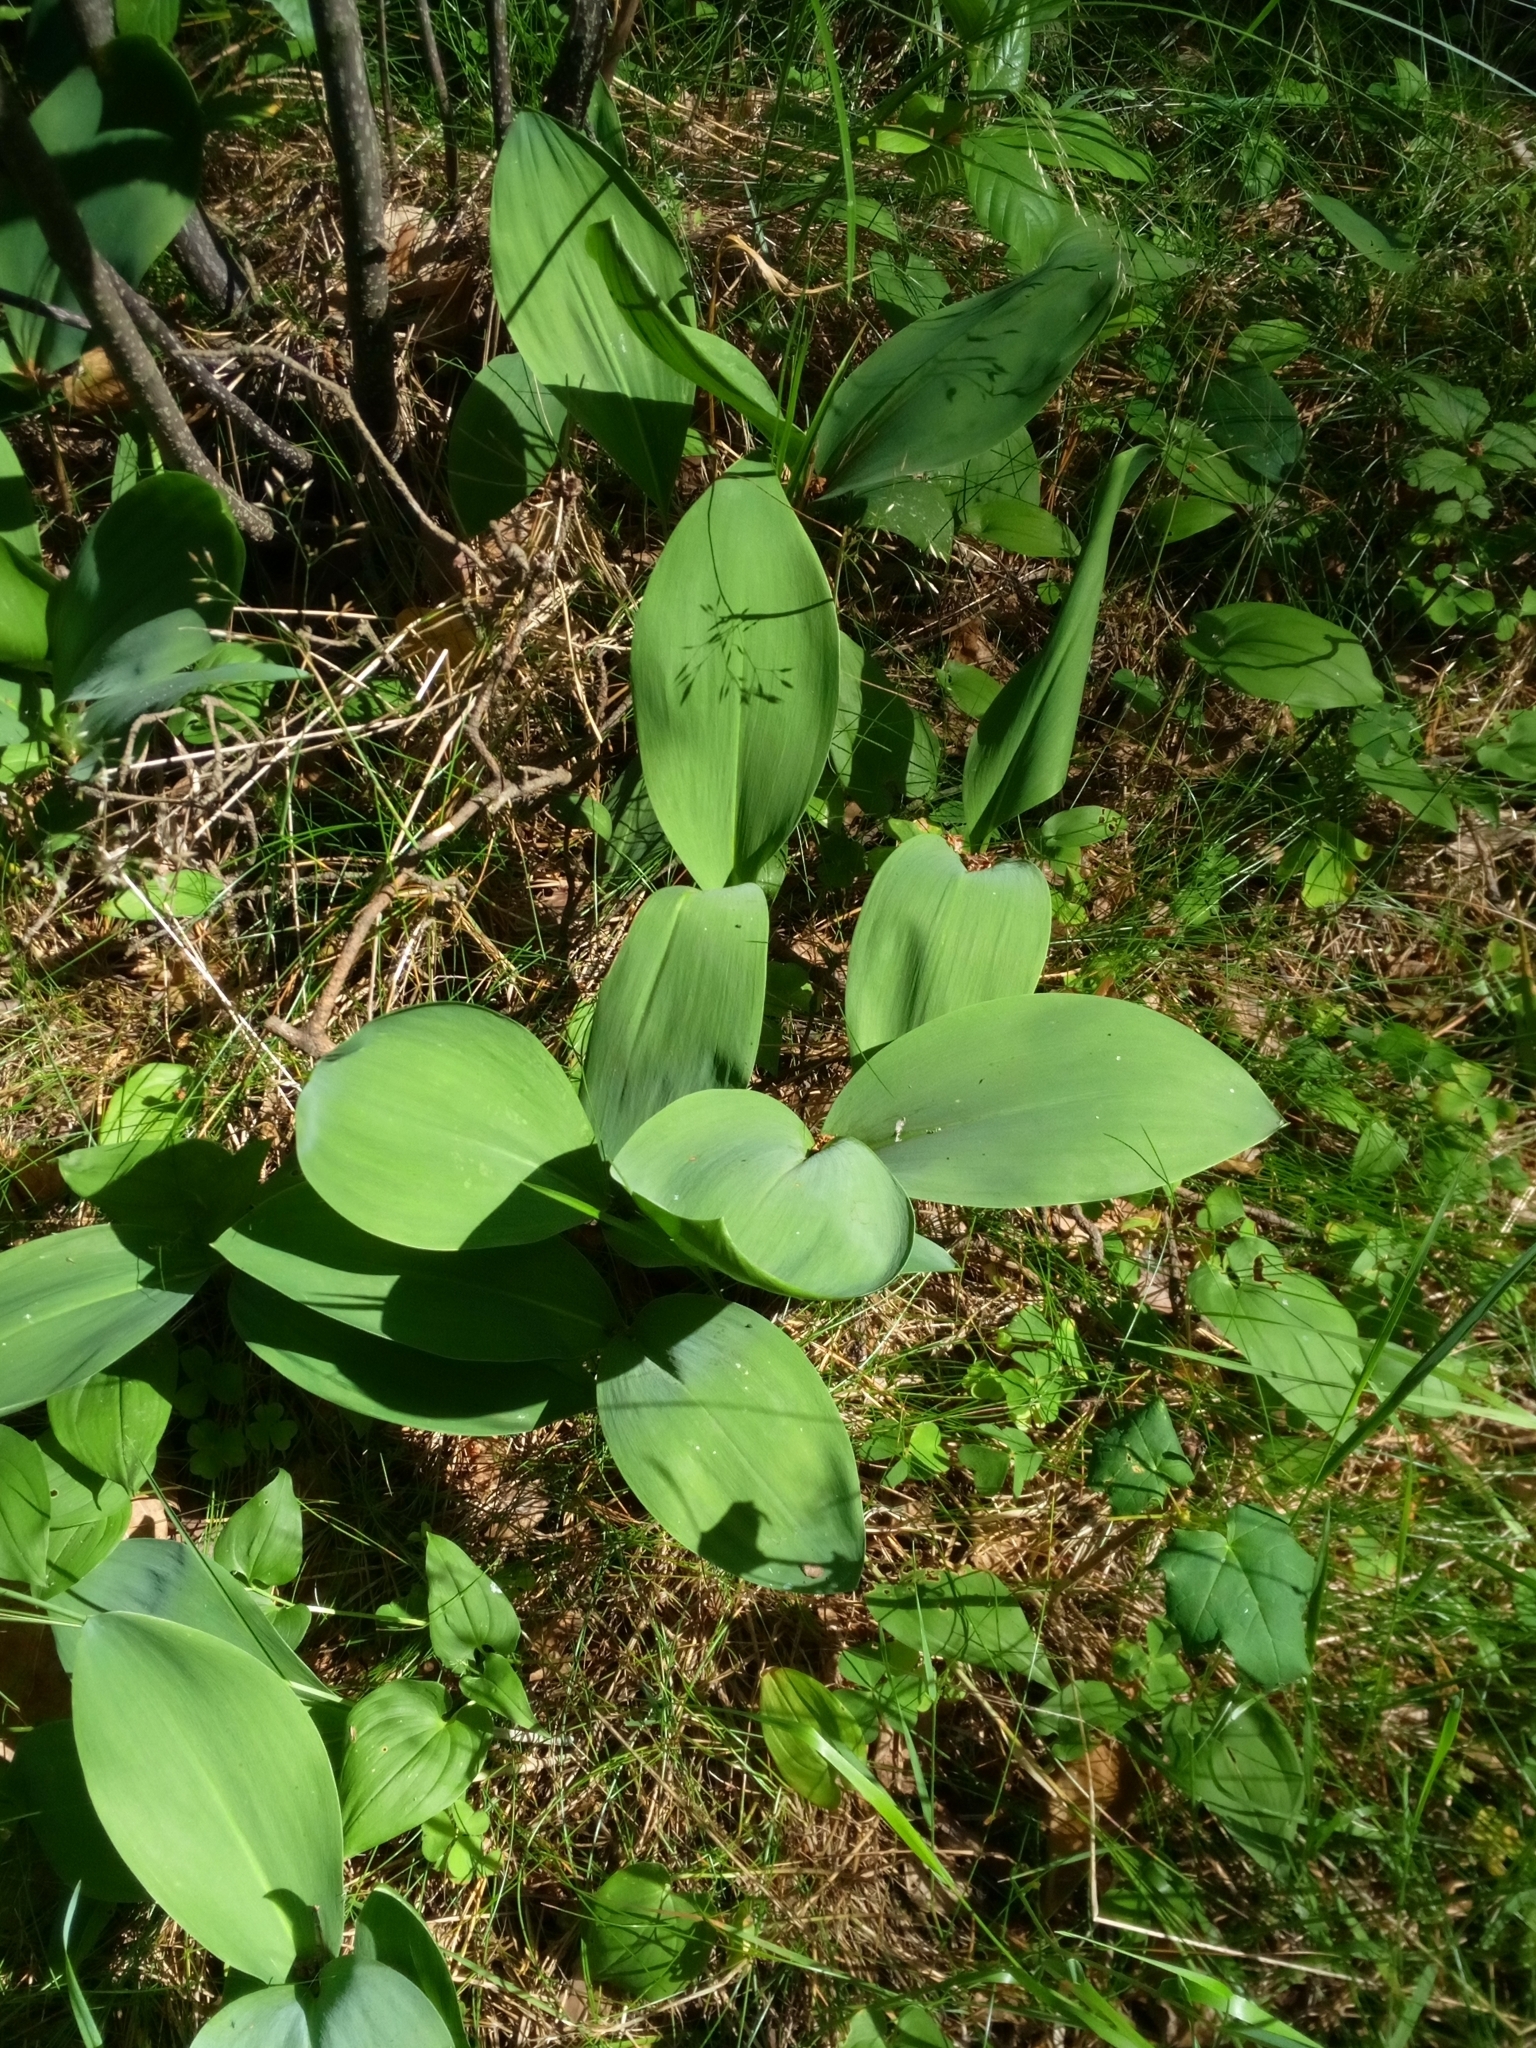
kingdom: Plantae
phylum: Tracheophyta
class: Liliopsida
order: Asparagales
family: Asparagaceae
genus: Convallaria
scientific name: Convallaria majalis
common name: Lily-of-the-valley
